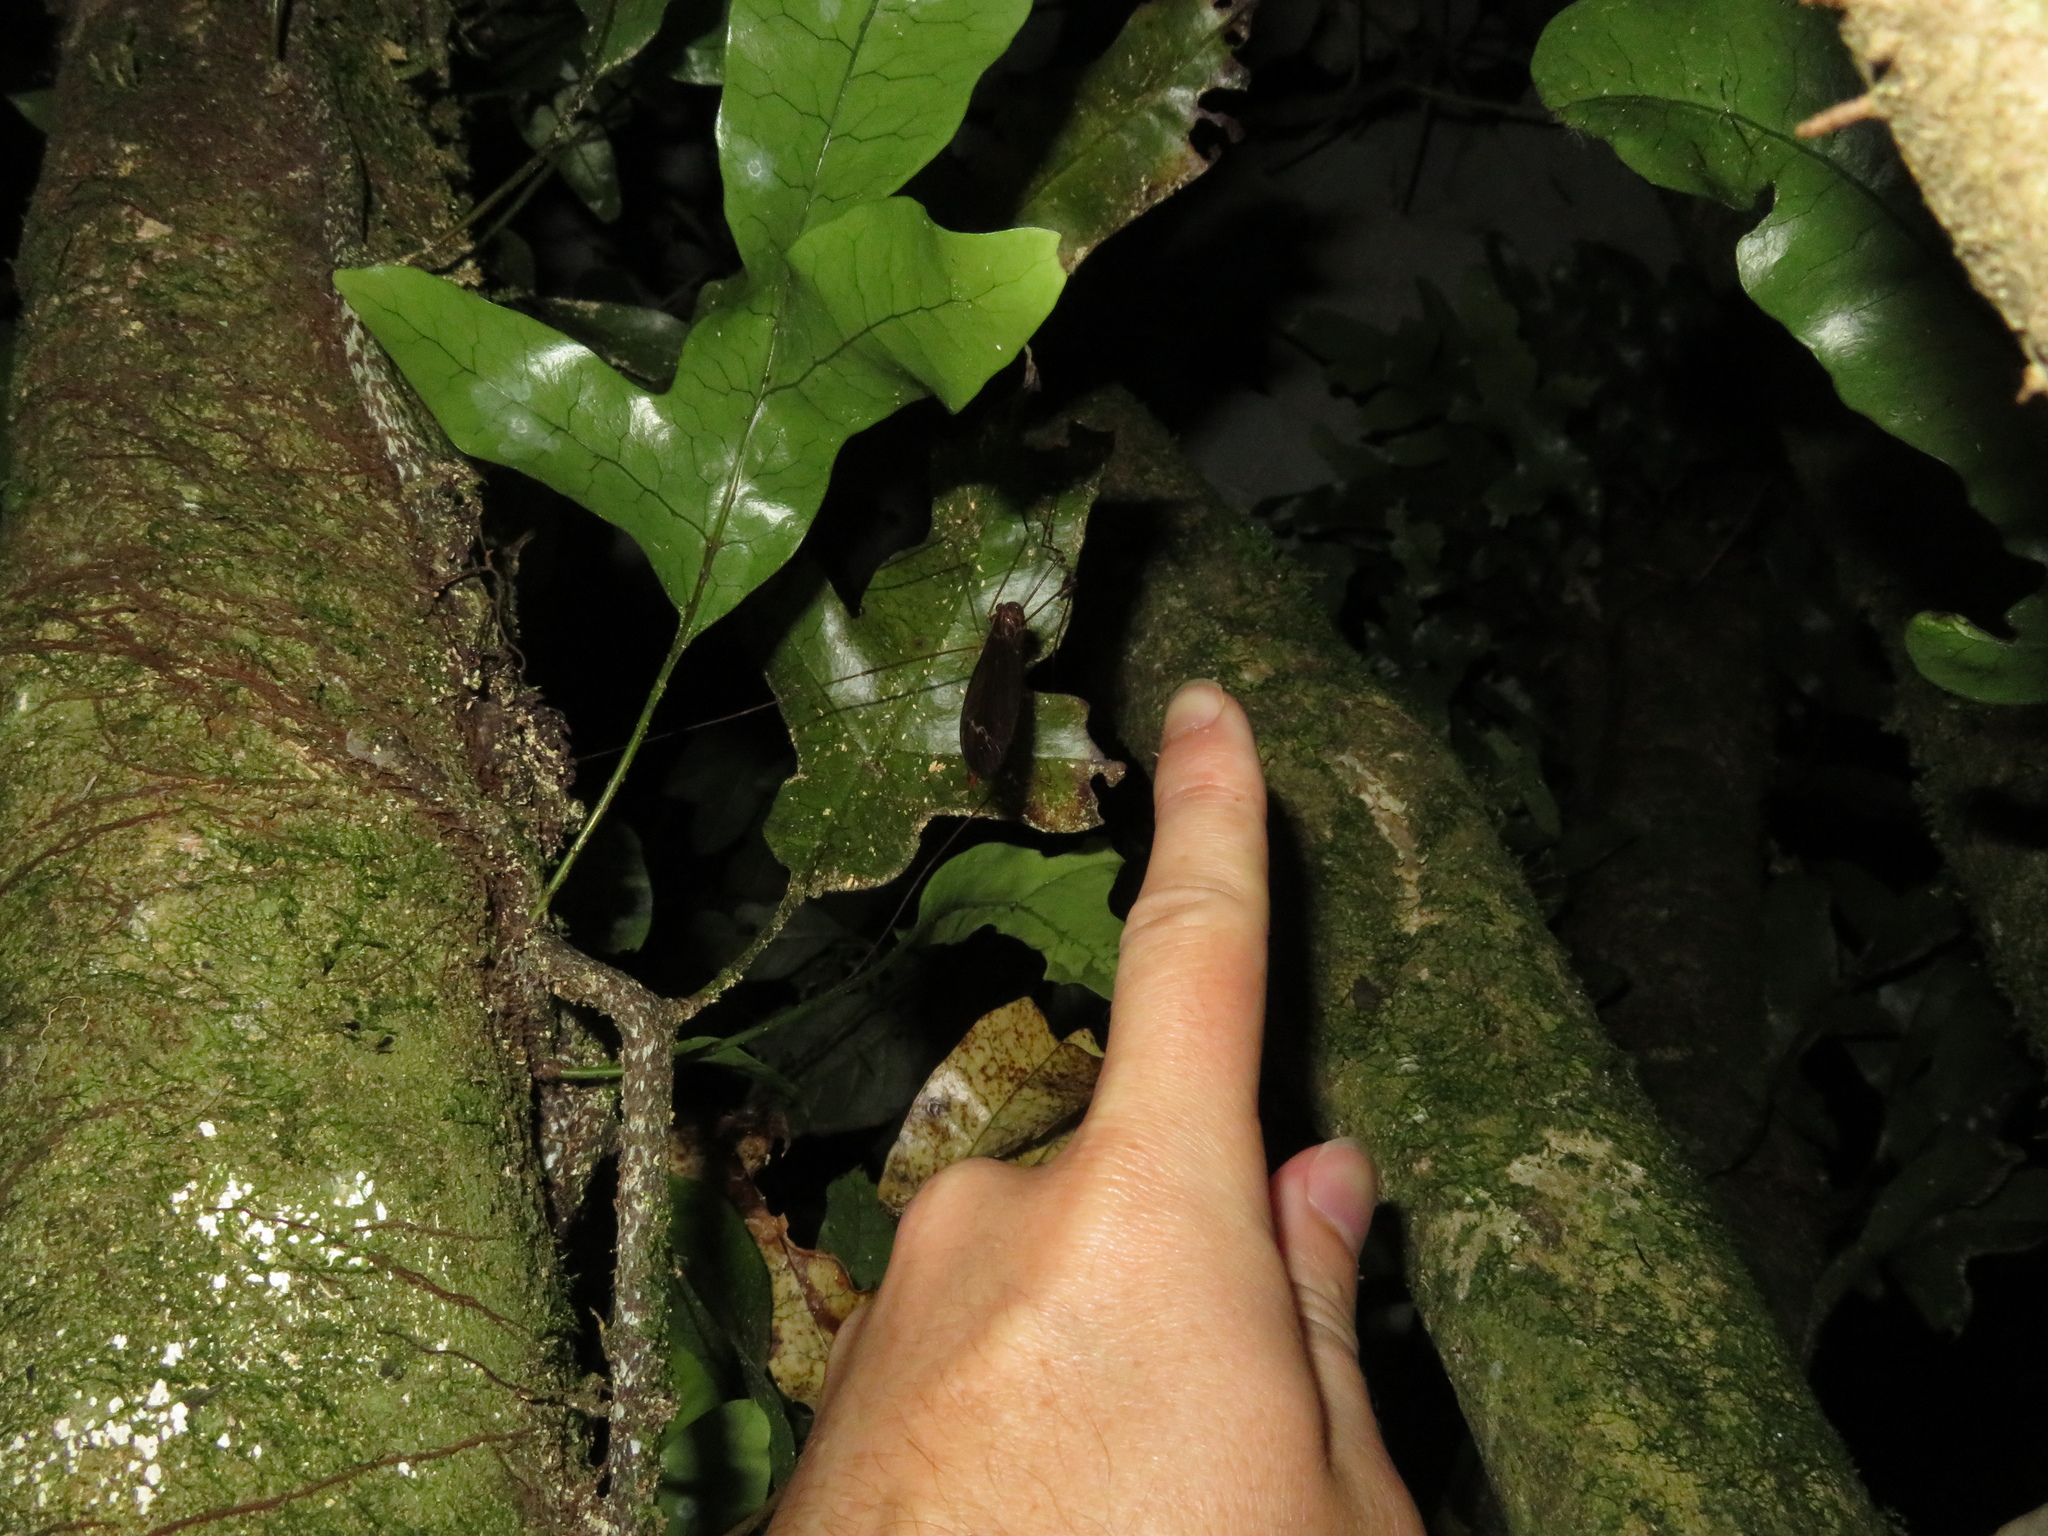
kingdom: Animalia
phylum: Arthropoda
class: Insecta
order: Diptera
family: Tipulidae
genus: Austrotipula
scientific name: Austrotipula hudsoni
